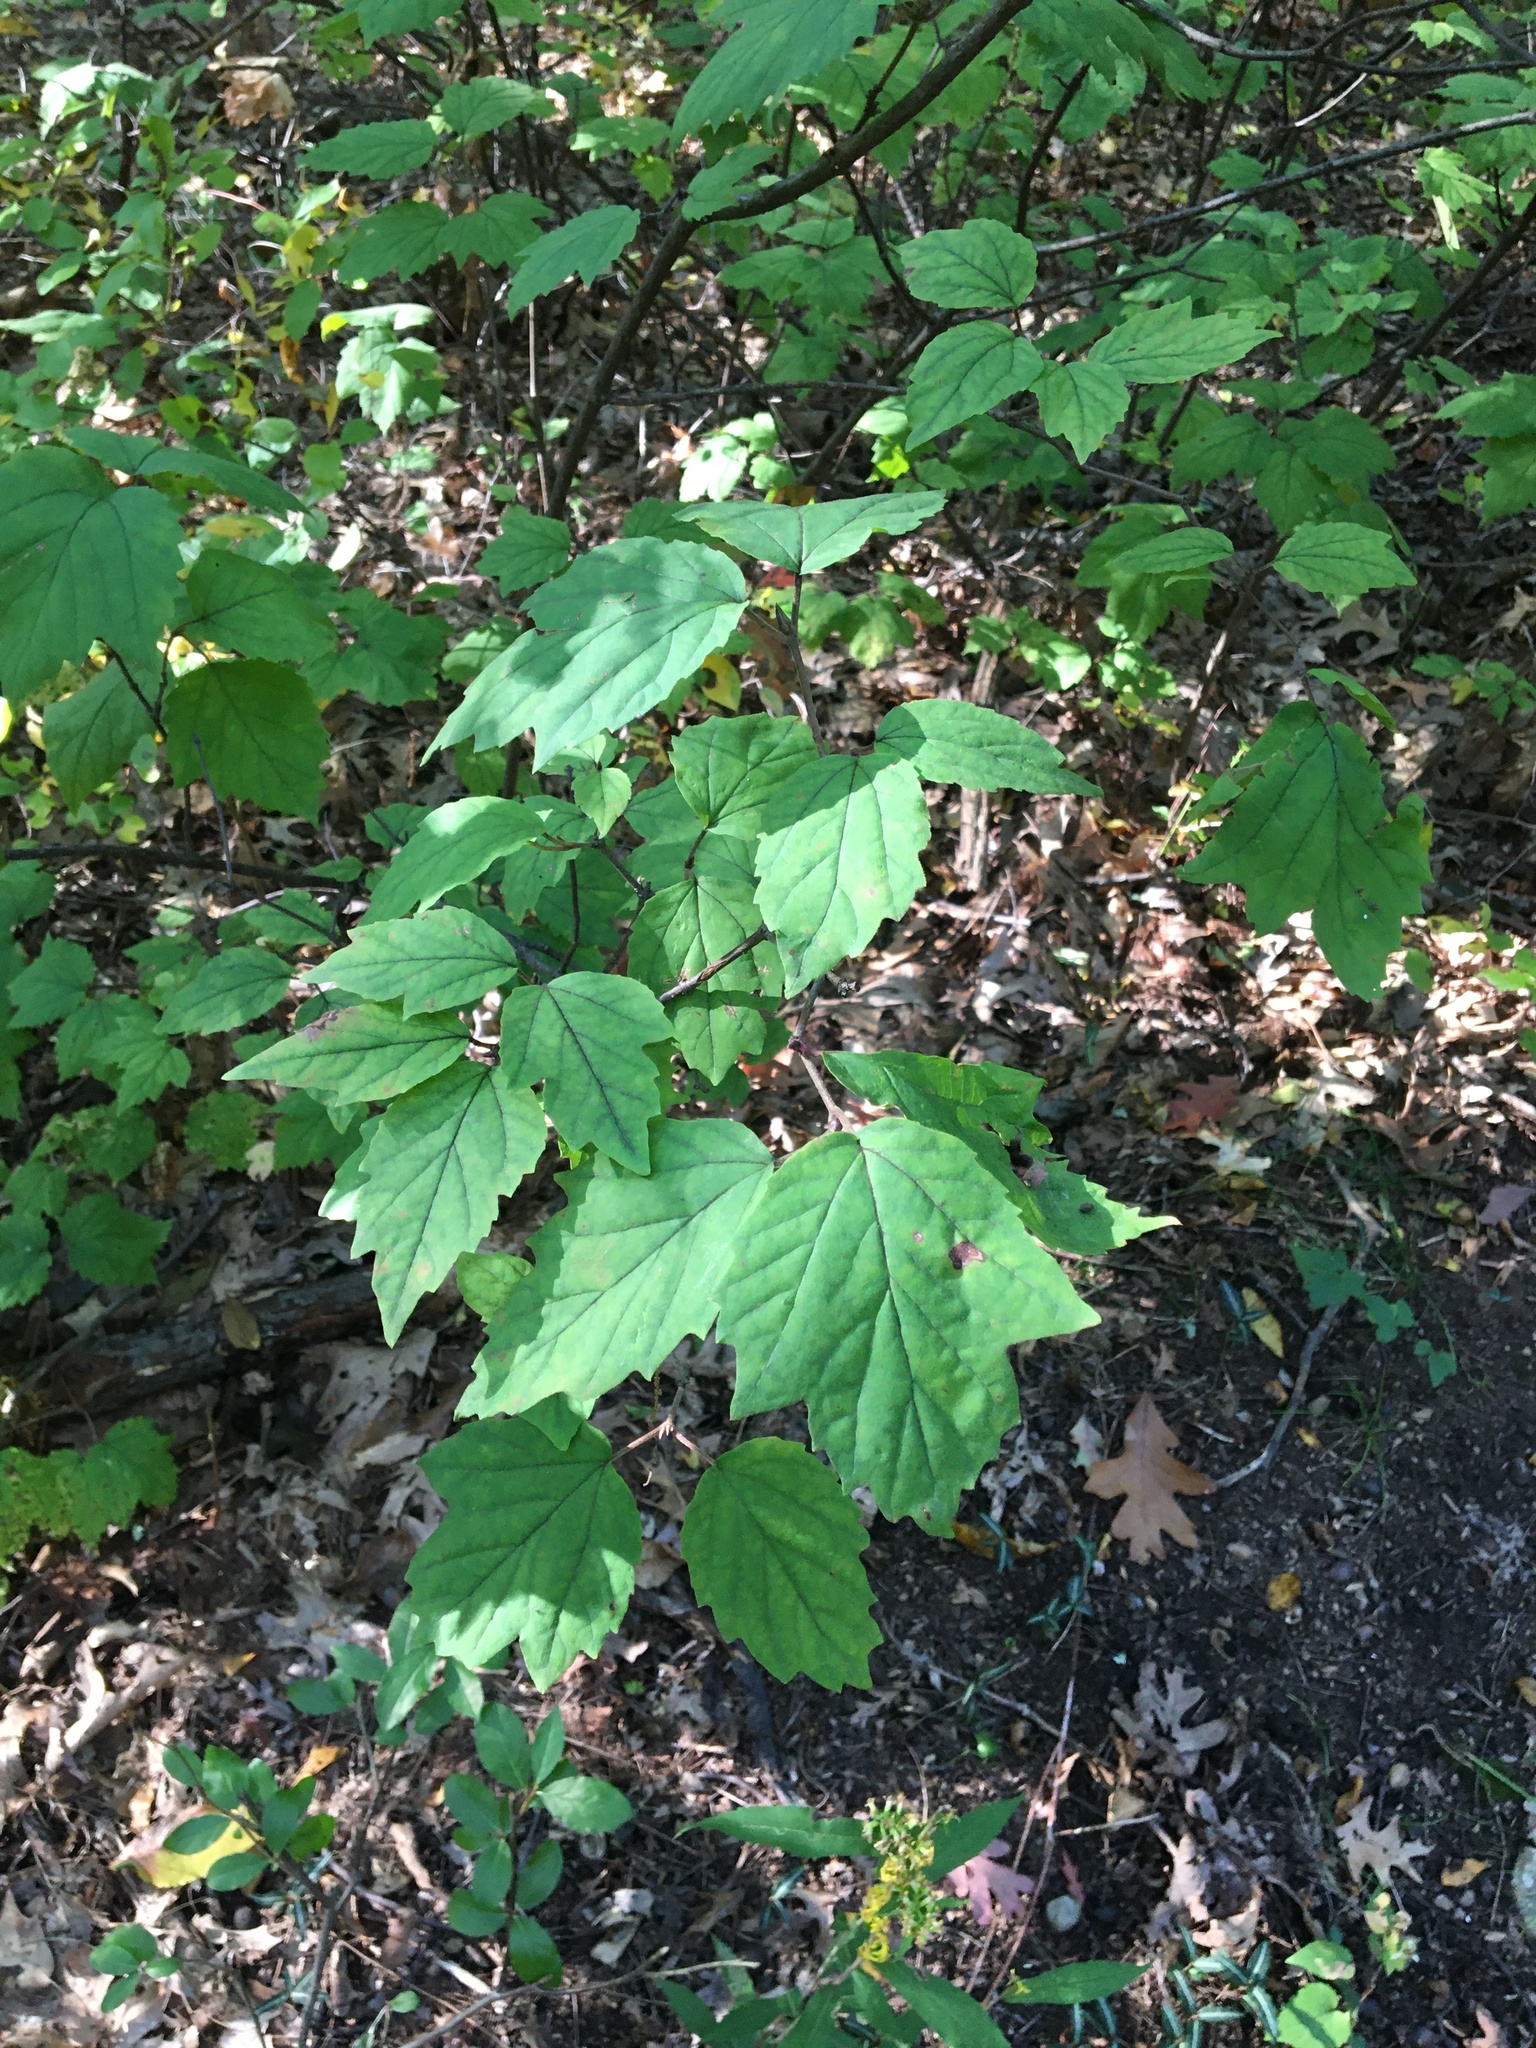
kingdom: Plantae
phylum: Tracheophyta
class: Magnoliopsida
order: Dipsacales
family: Viburnaceae
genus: Viburnum
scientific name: Viburnum acerifolium
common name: Dockmackie
